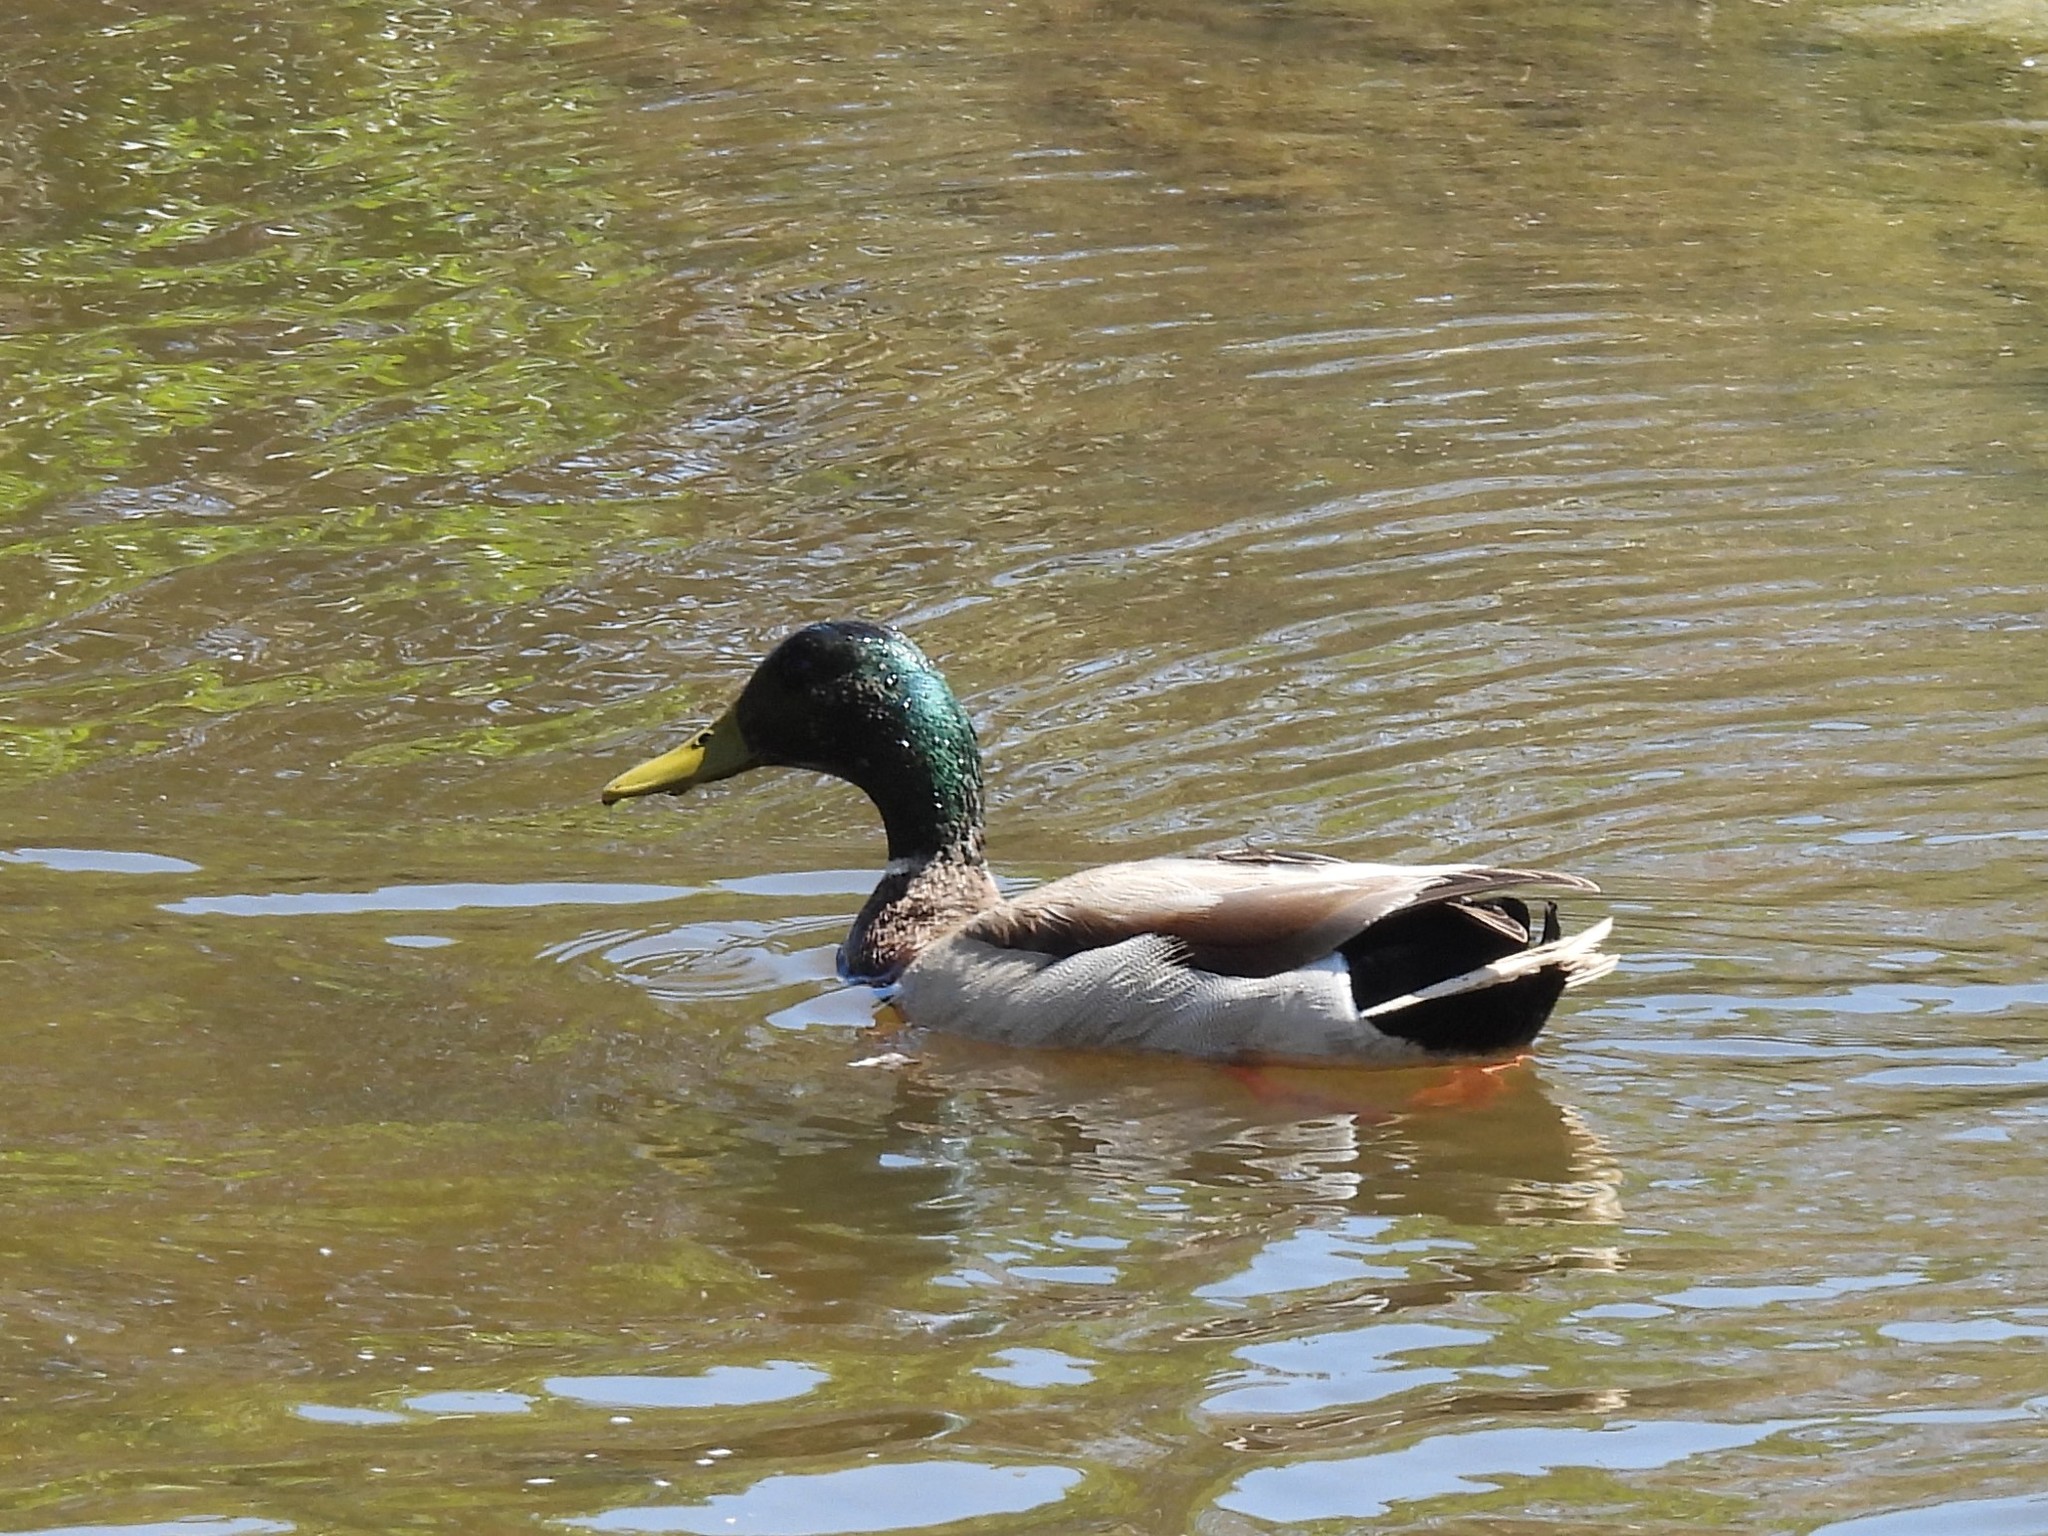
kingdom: Animalia
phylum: Chordata
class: Aves
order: Anseriformes
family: Anatidae
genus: Anas
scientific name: Anas platyrhynchos
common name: Mallard
